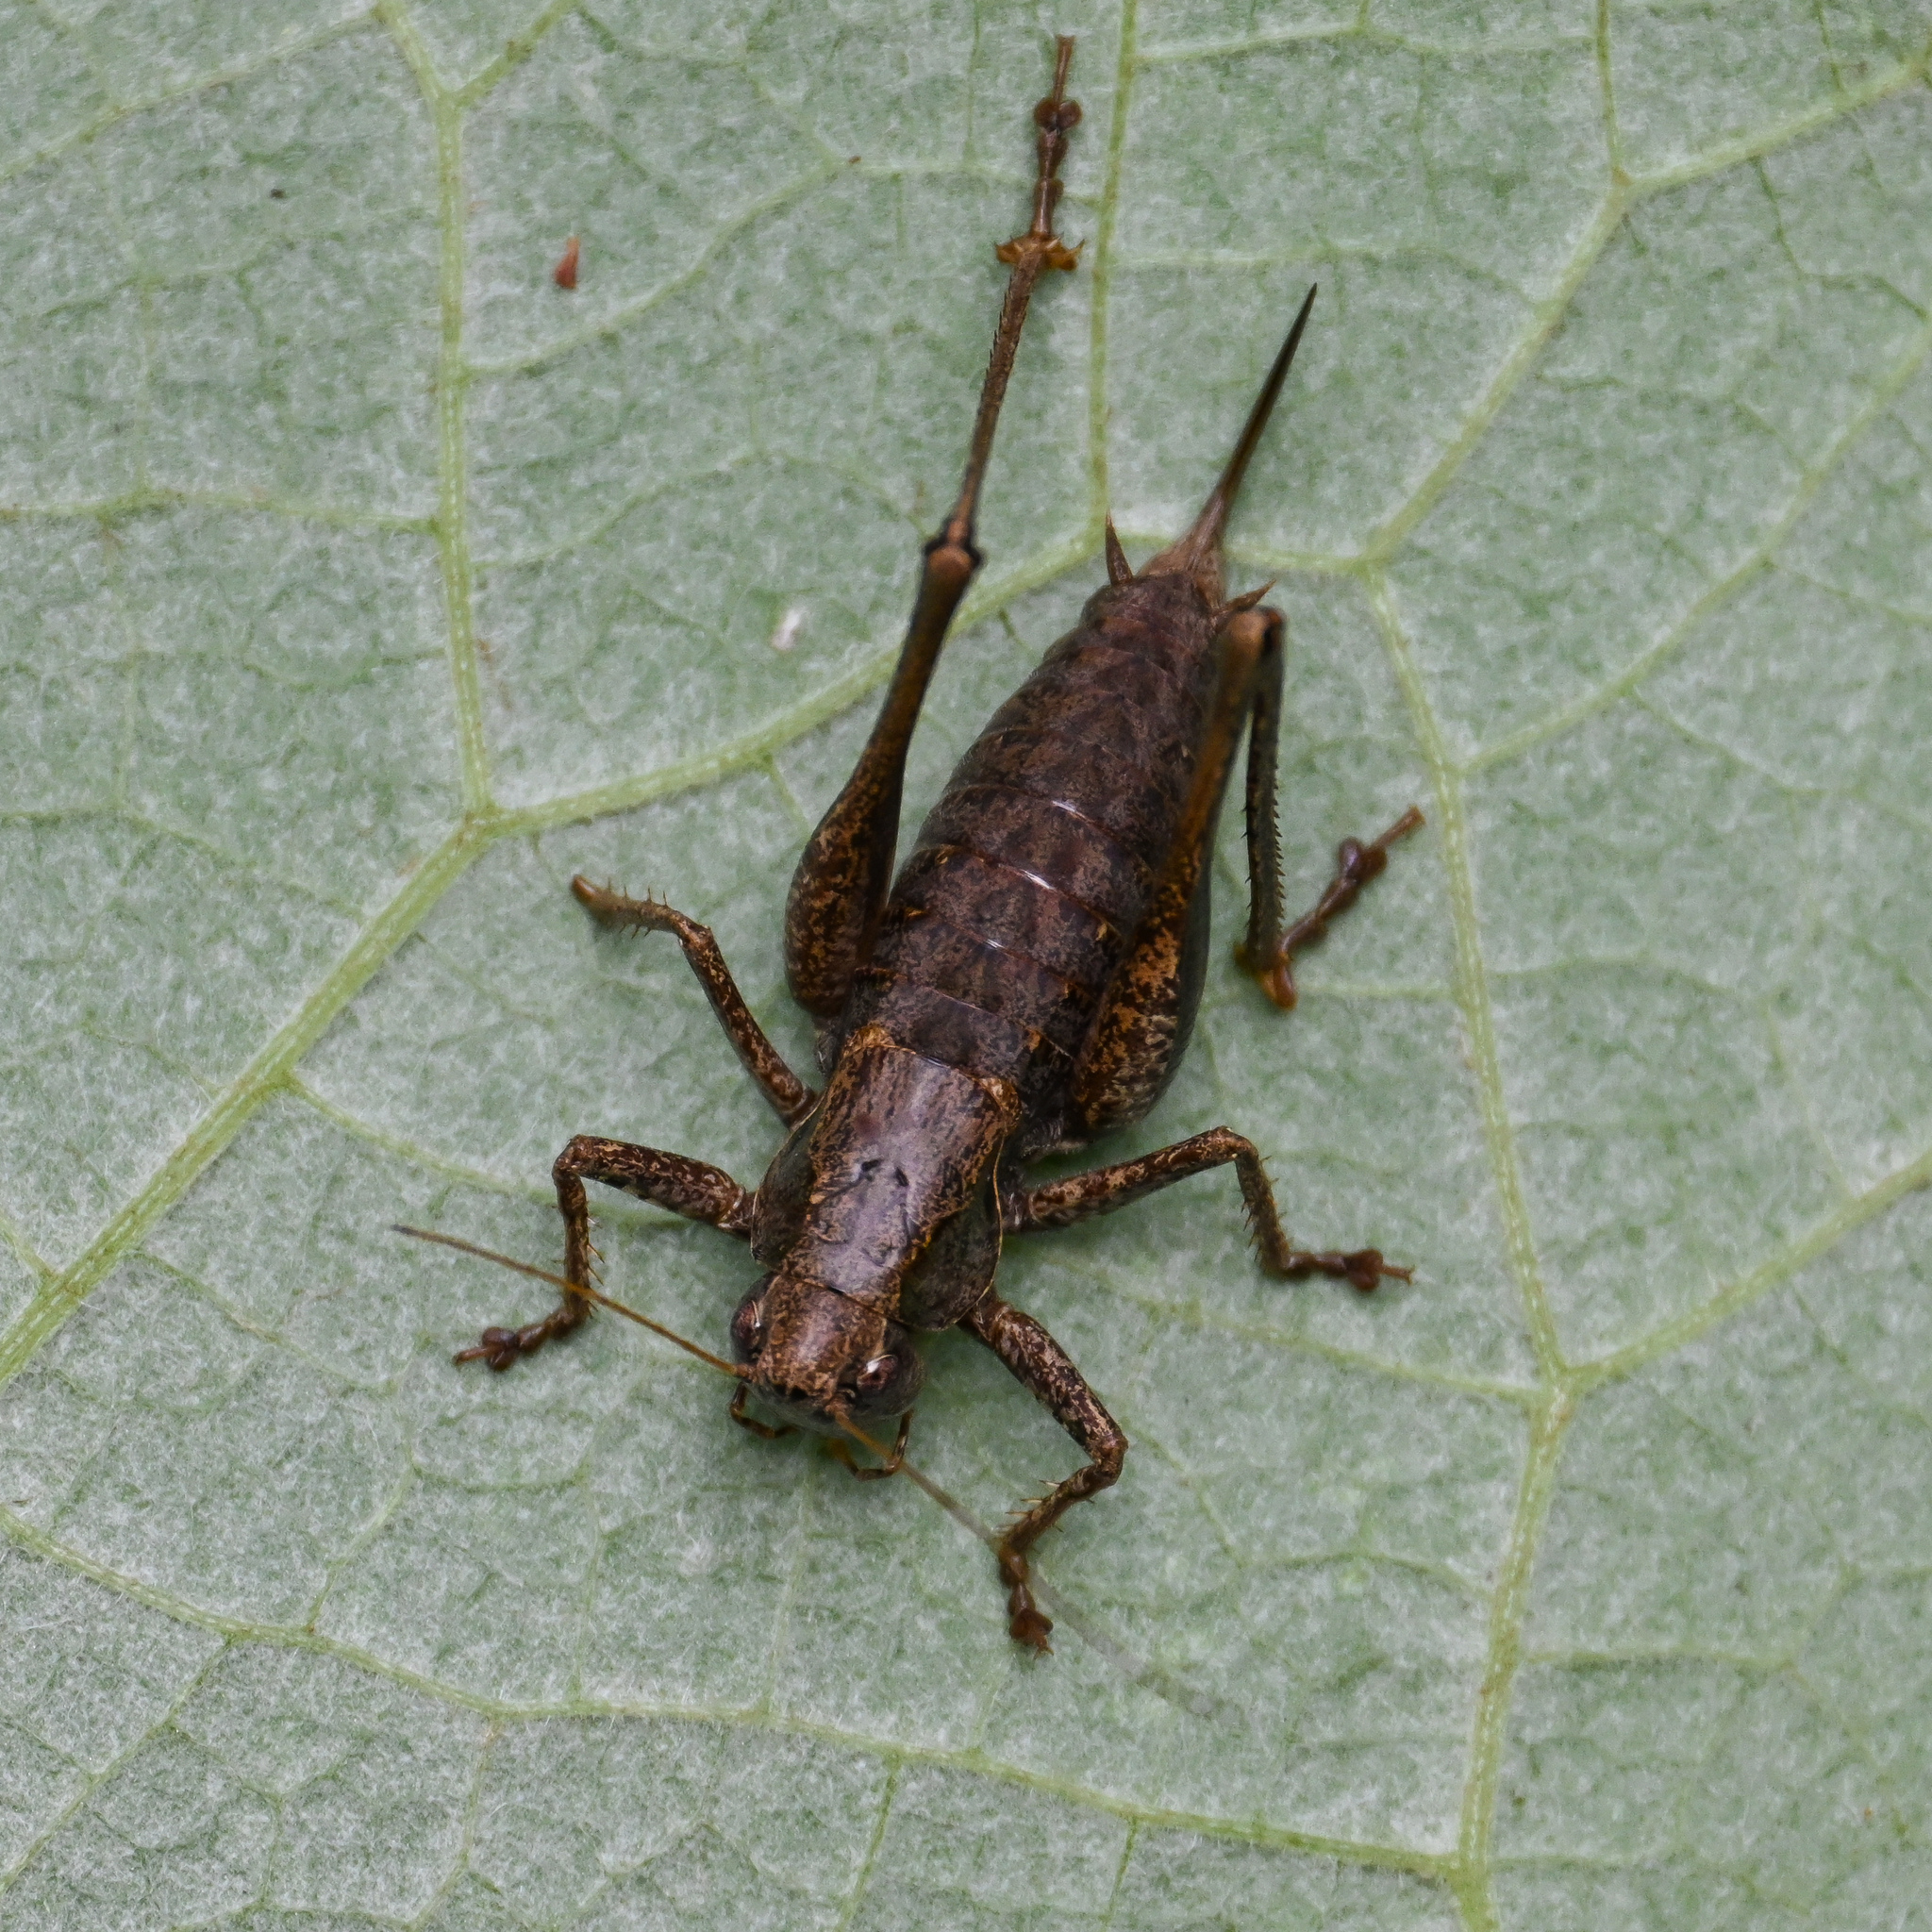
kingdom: Animalia
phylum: Arthropoda
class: Insecta
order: Orthoptera
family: Tettigoniidae
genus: Pholidoptera
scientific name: Pholidoptera griseoaptera
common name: Dark bush-cricket
